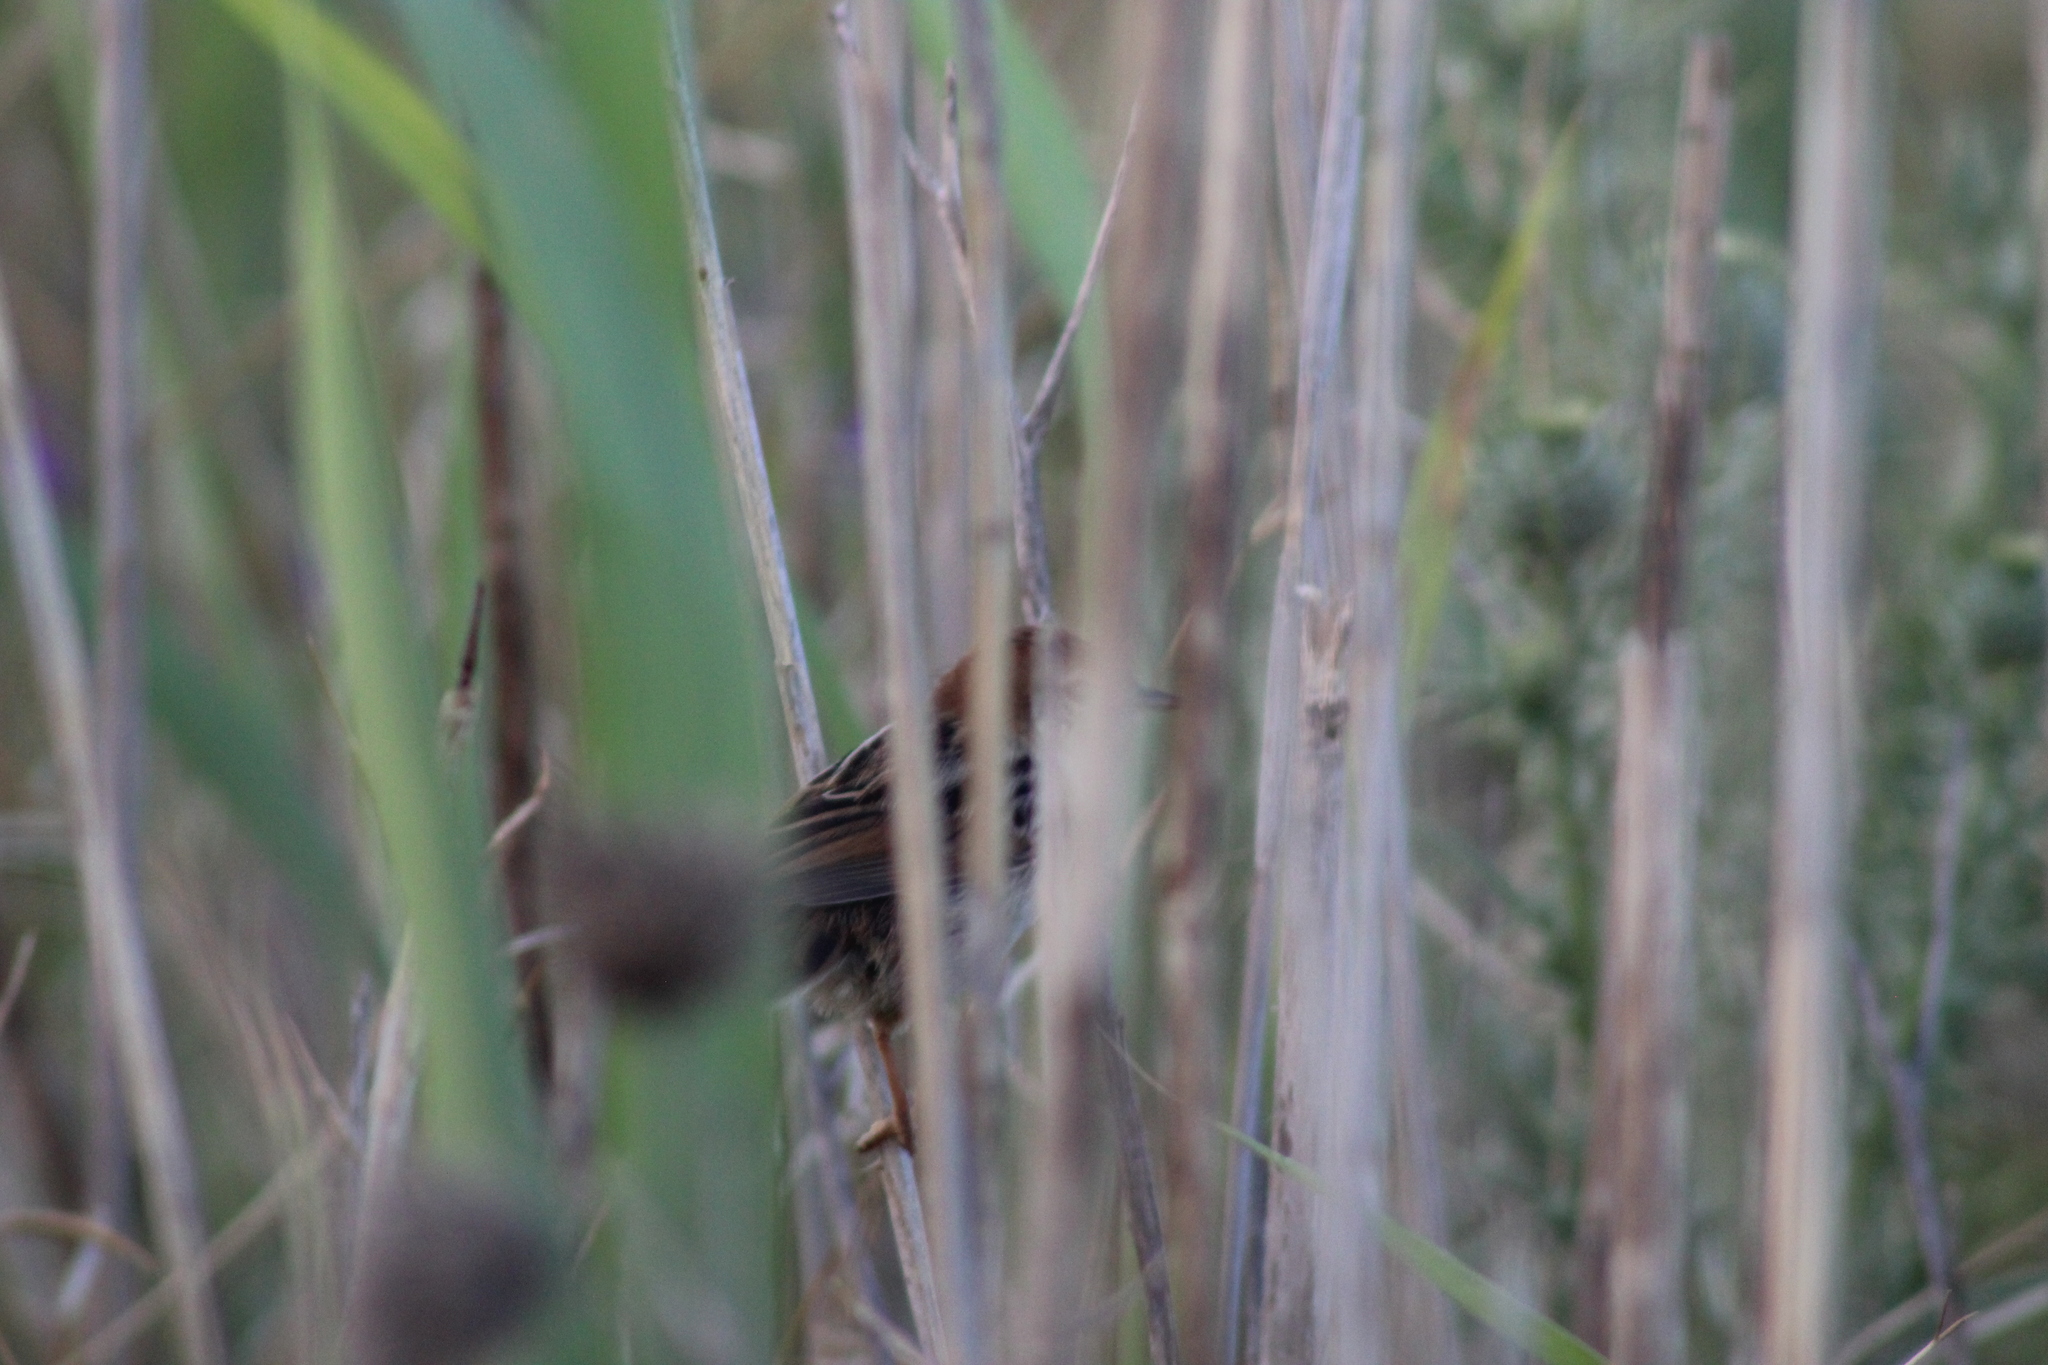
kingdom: Animalia
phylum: Chordata
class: Aves
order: Passeriformes
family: Cisticolidae
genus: Cisticola
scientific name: Cisticola tinniens
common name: Levaillant's cisticola
